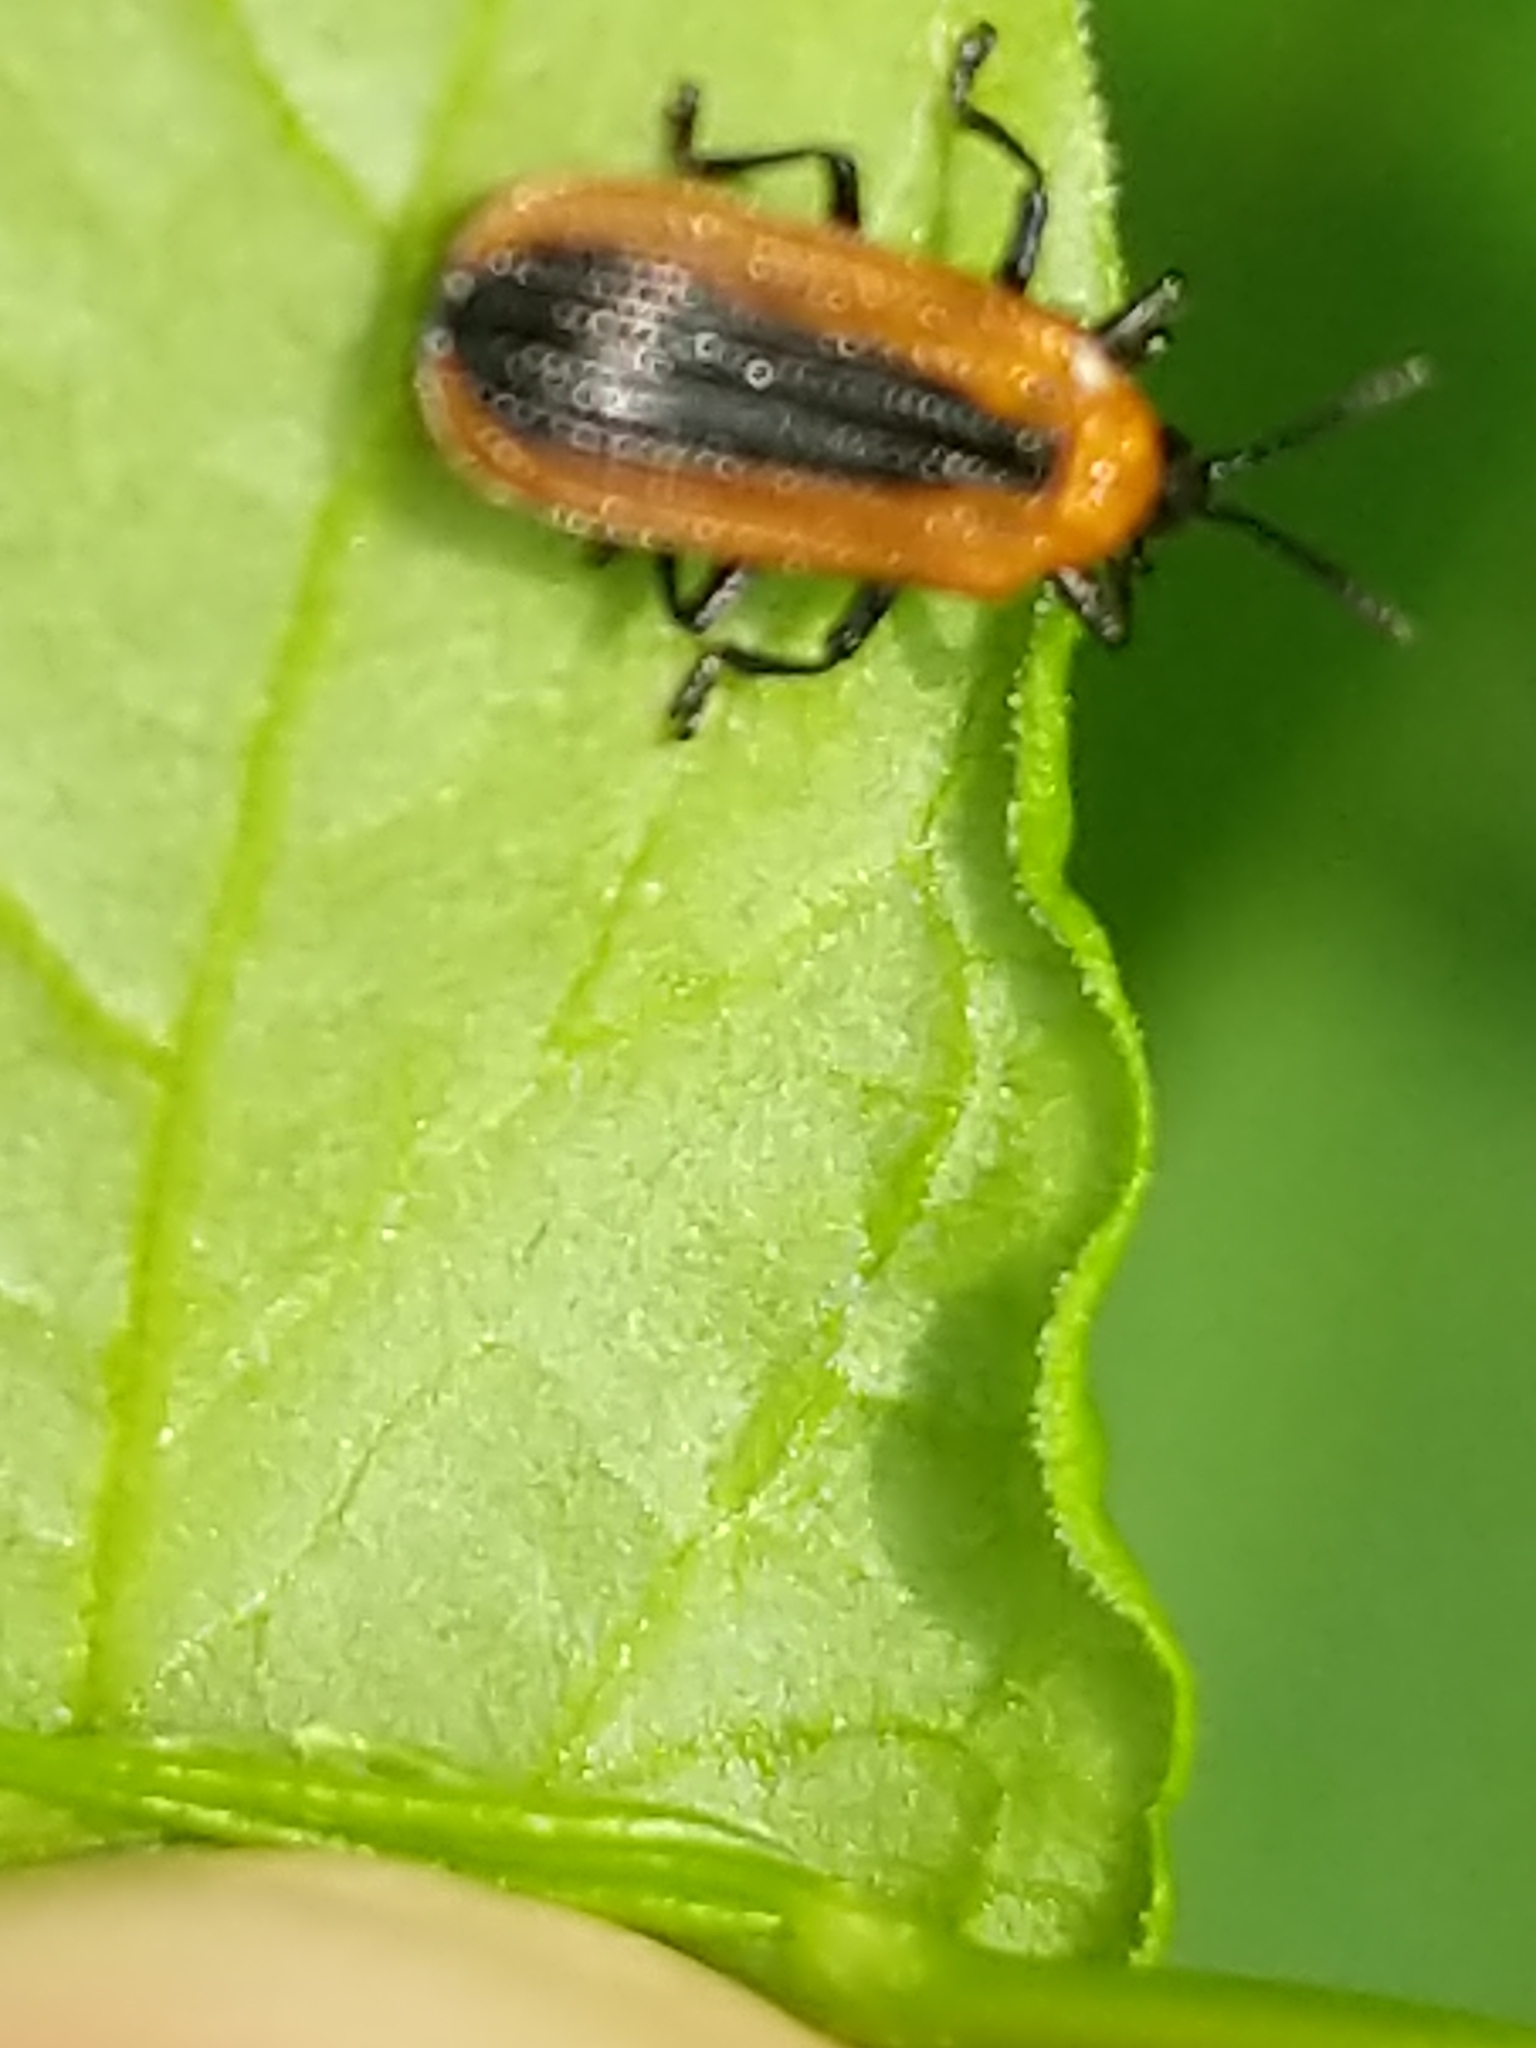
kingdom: Animalia
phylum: Arthropoda
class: Insecta
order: Coleoptera
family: Chrysomelidae
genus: Odontota
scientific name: Odontota dorsalis
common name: Locust leaf-miner beetle
